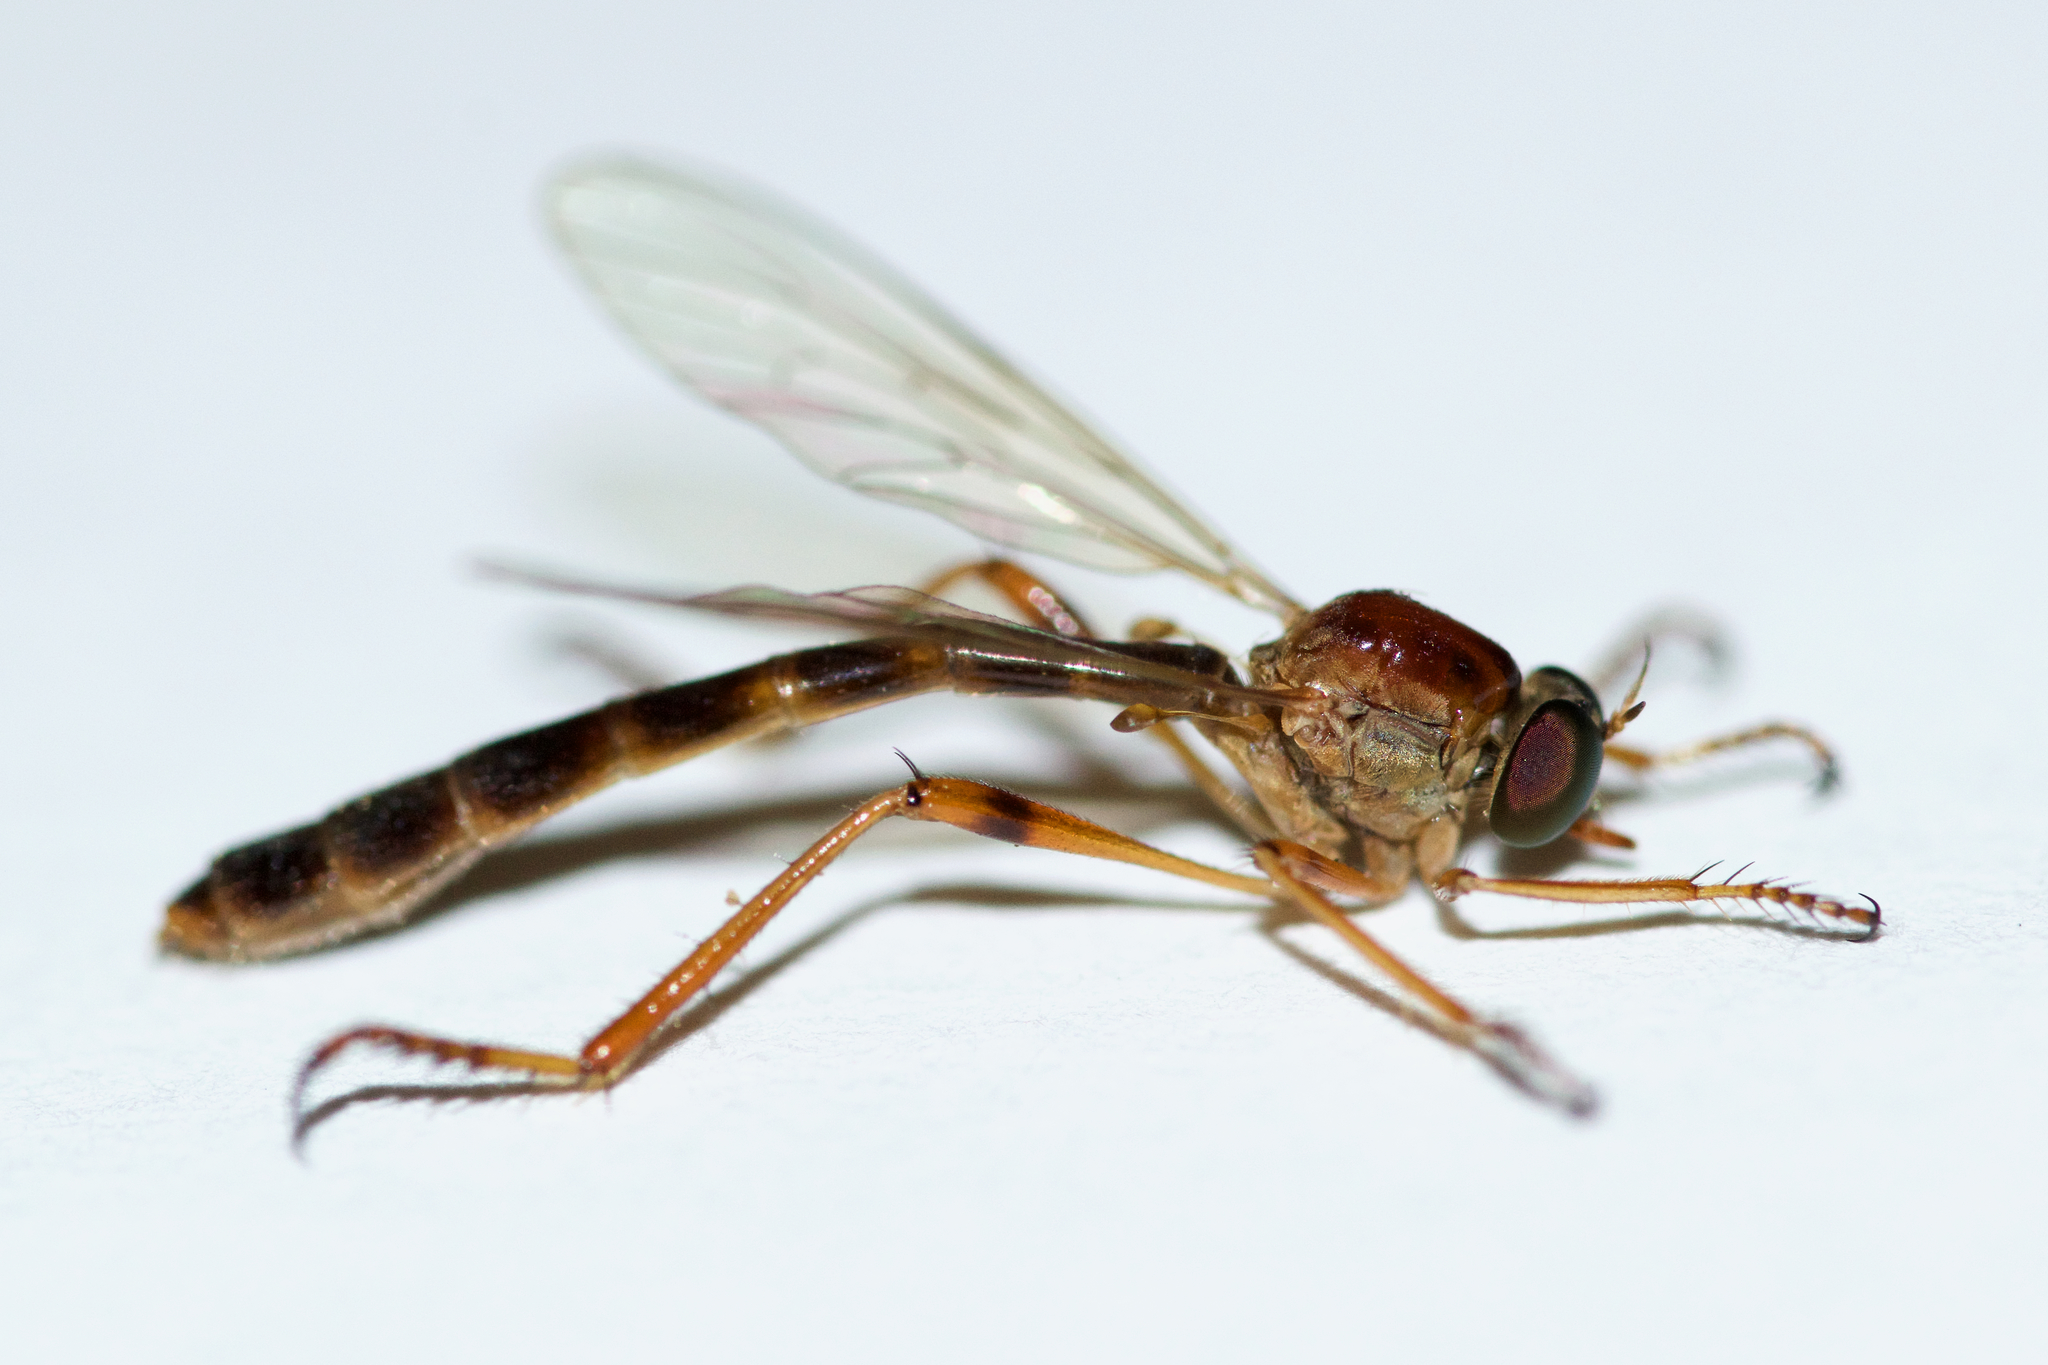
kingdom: Animalia
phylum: Arthropoda
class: Insecta
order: Diptera
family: Asilidae
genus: Tipulogaster
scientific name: Tipulogaster glabrata
